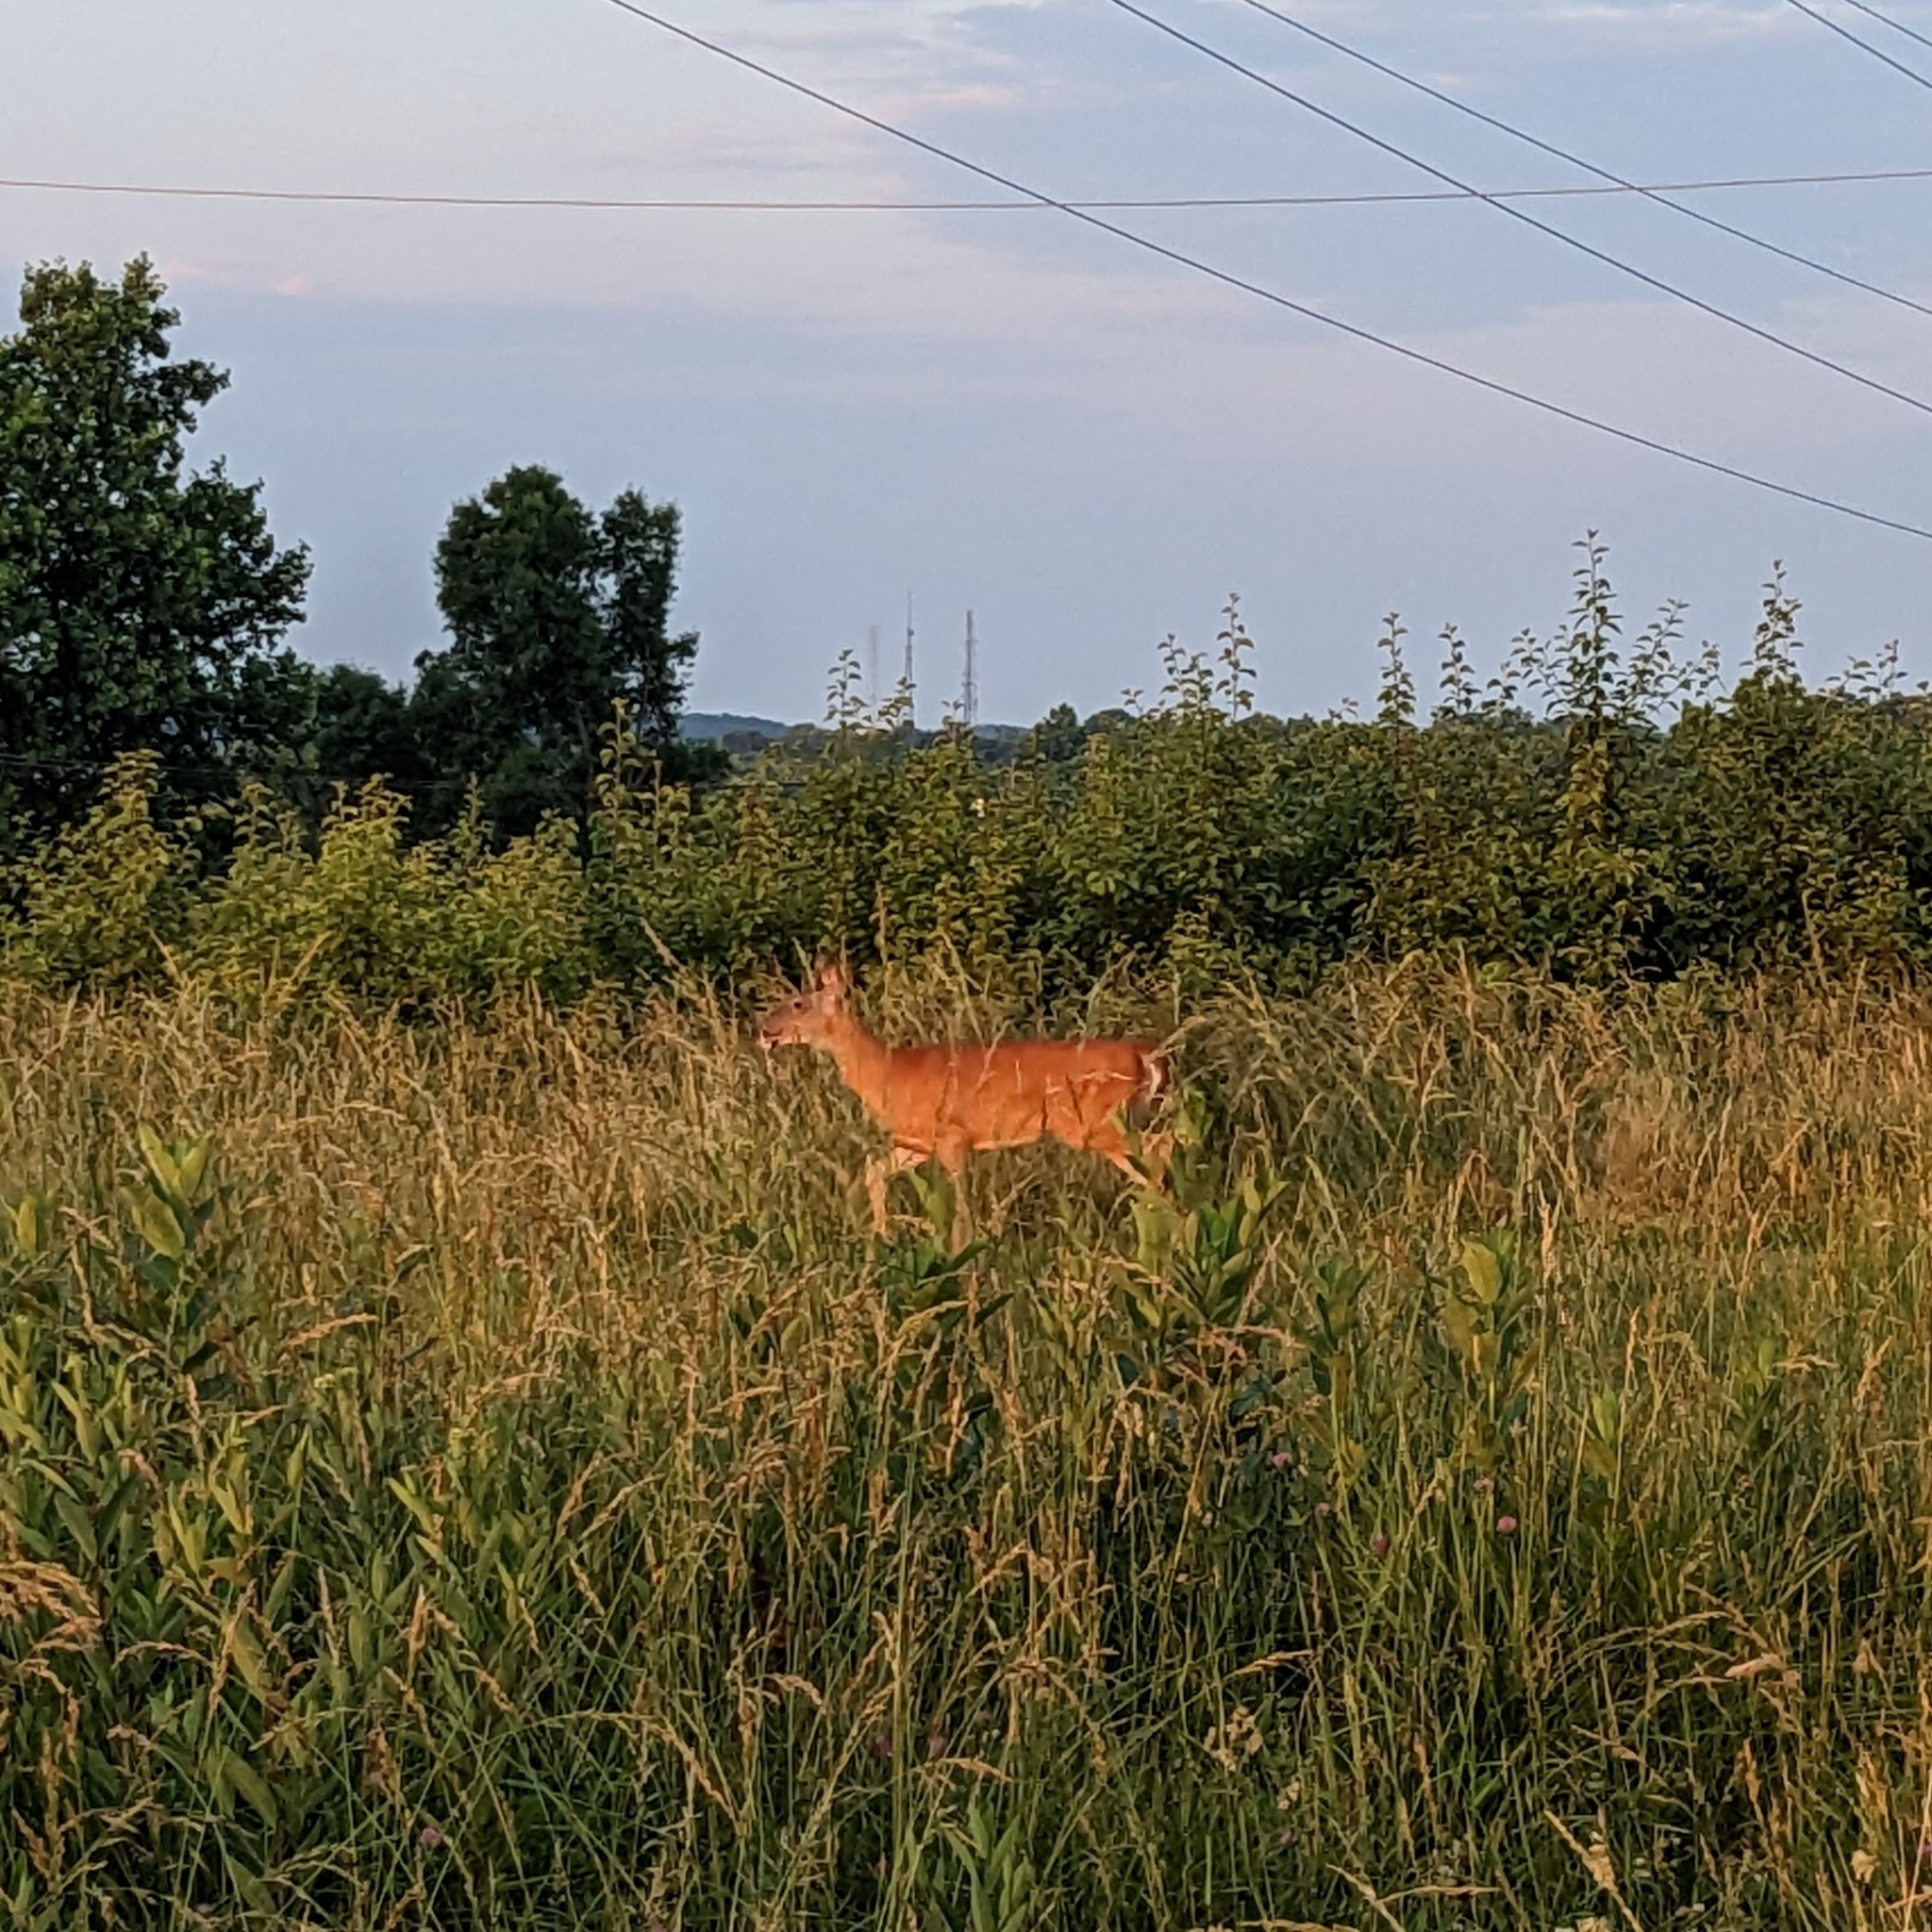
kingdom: Animalia
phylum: Chordata
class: Mammalia
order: Artiodactyla
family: Cervidae
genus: Odocoileus
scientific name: Odocoileus virginianus
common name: White-tailed deer
